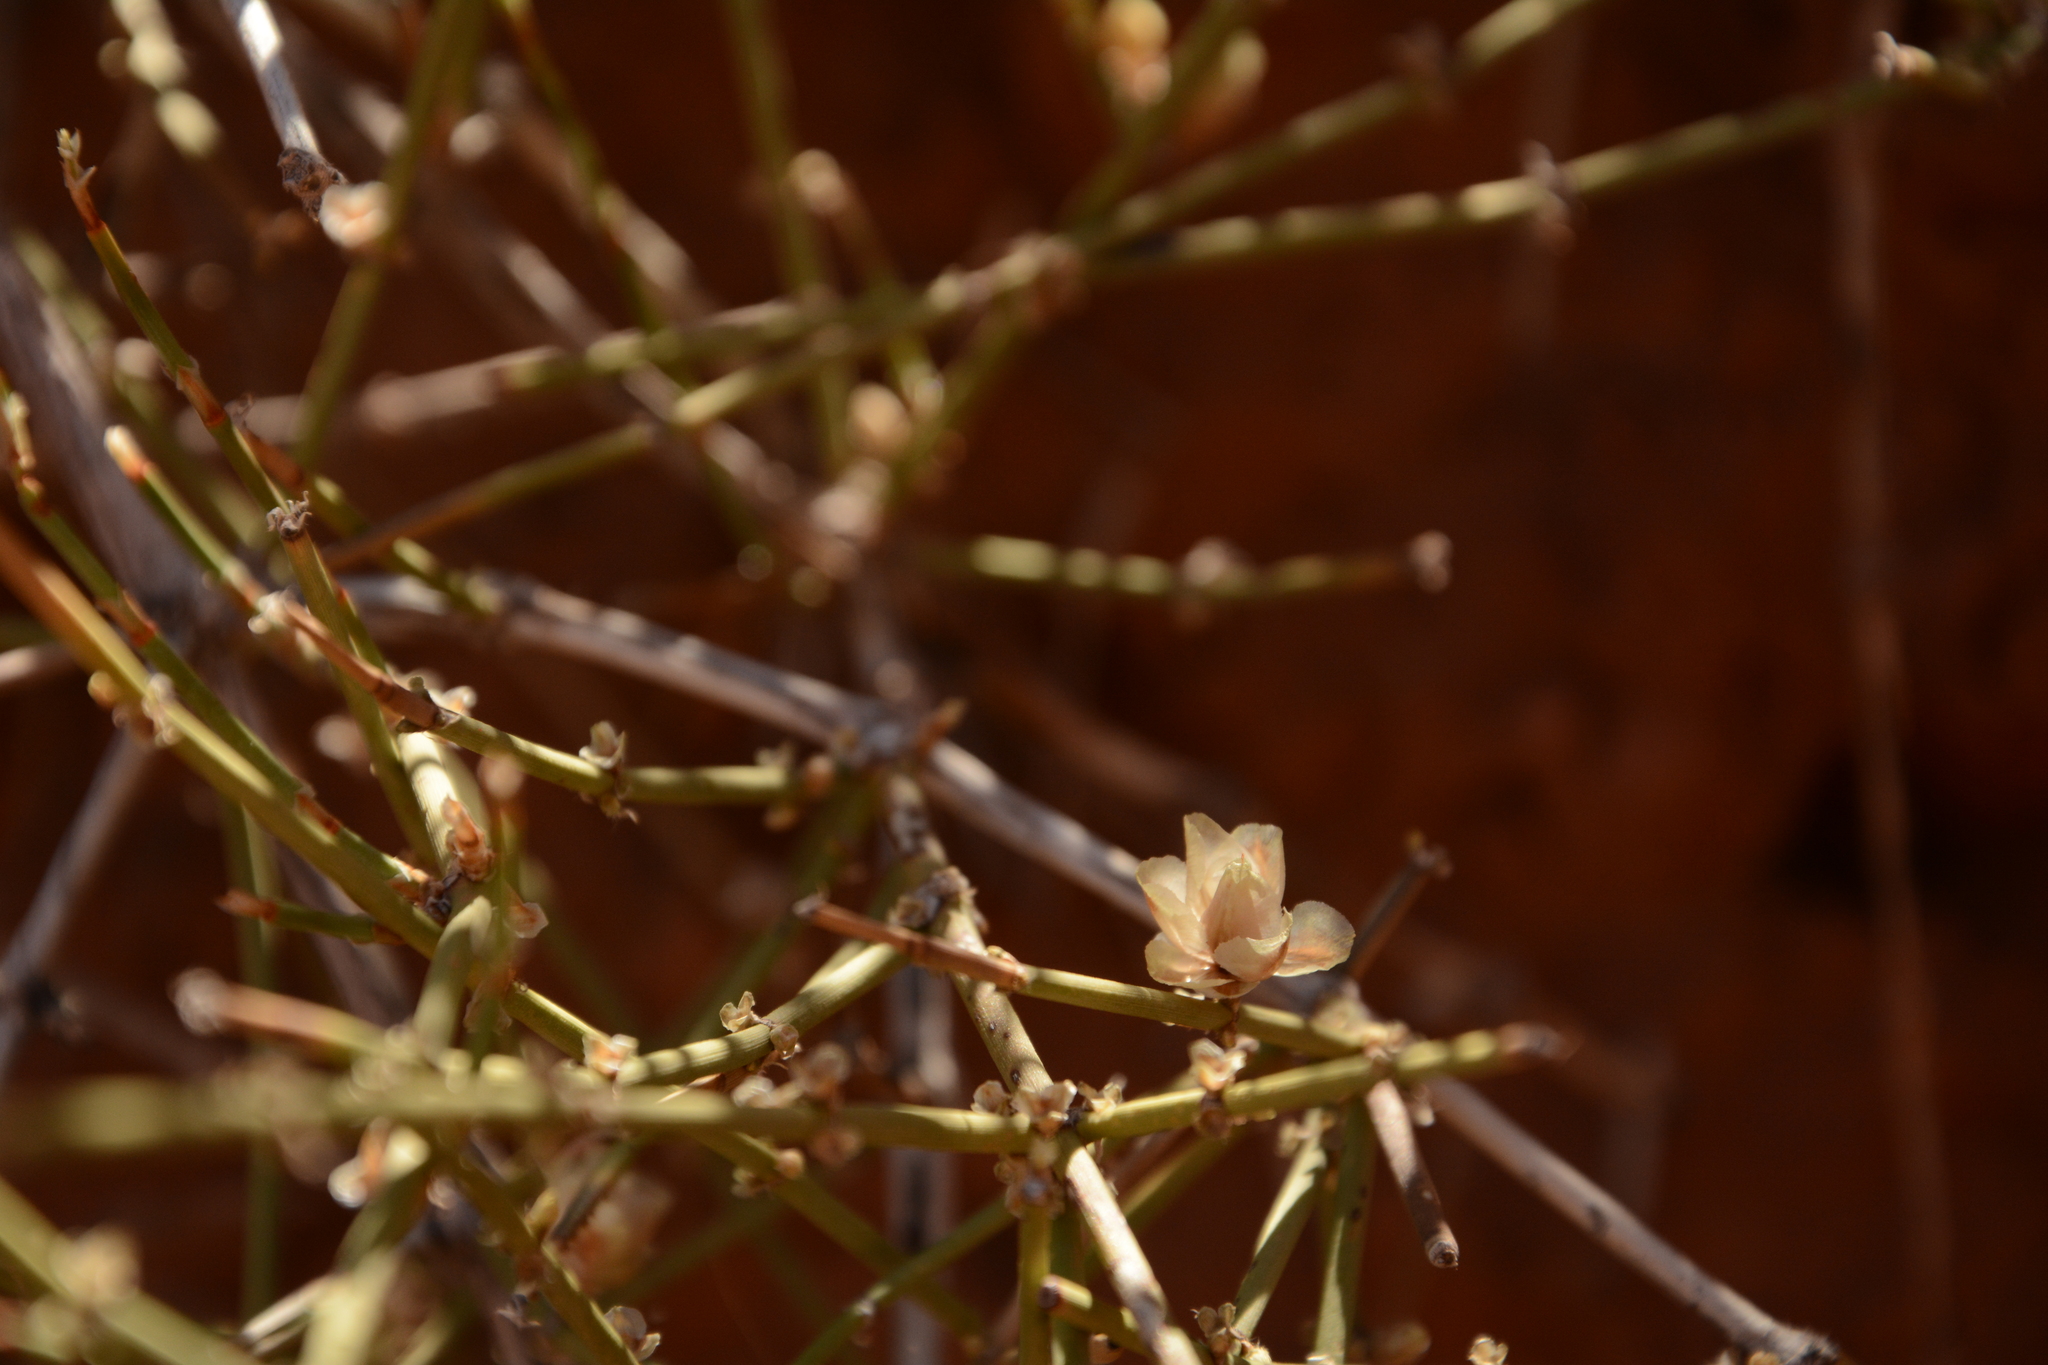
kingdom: Plantae
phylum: Tracheophyta
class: Gnetopsida
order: Ephedrales
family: Ephedraceae
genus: Ephedra
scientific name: Ephedra torreyana
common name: Torrey ephedra
